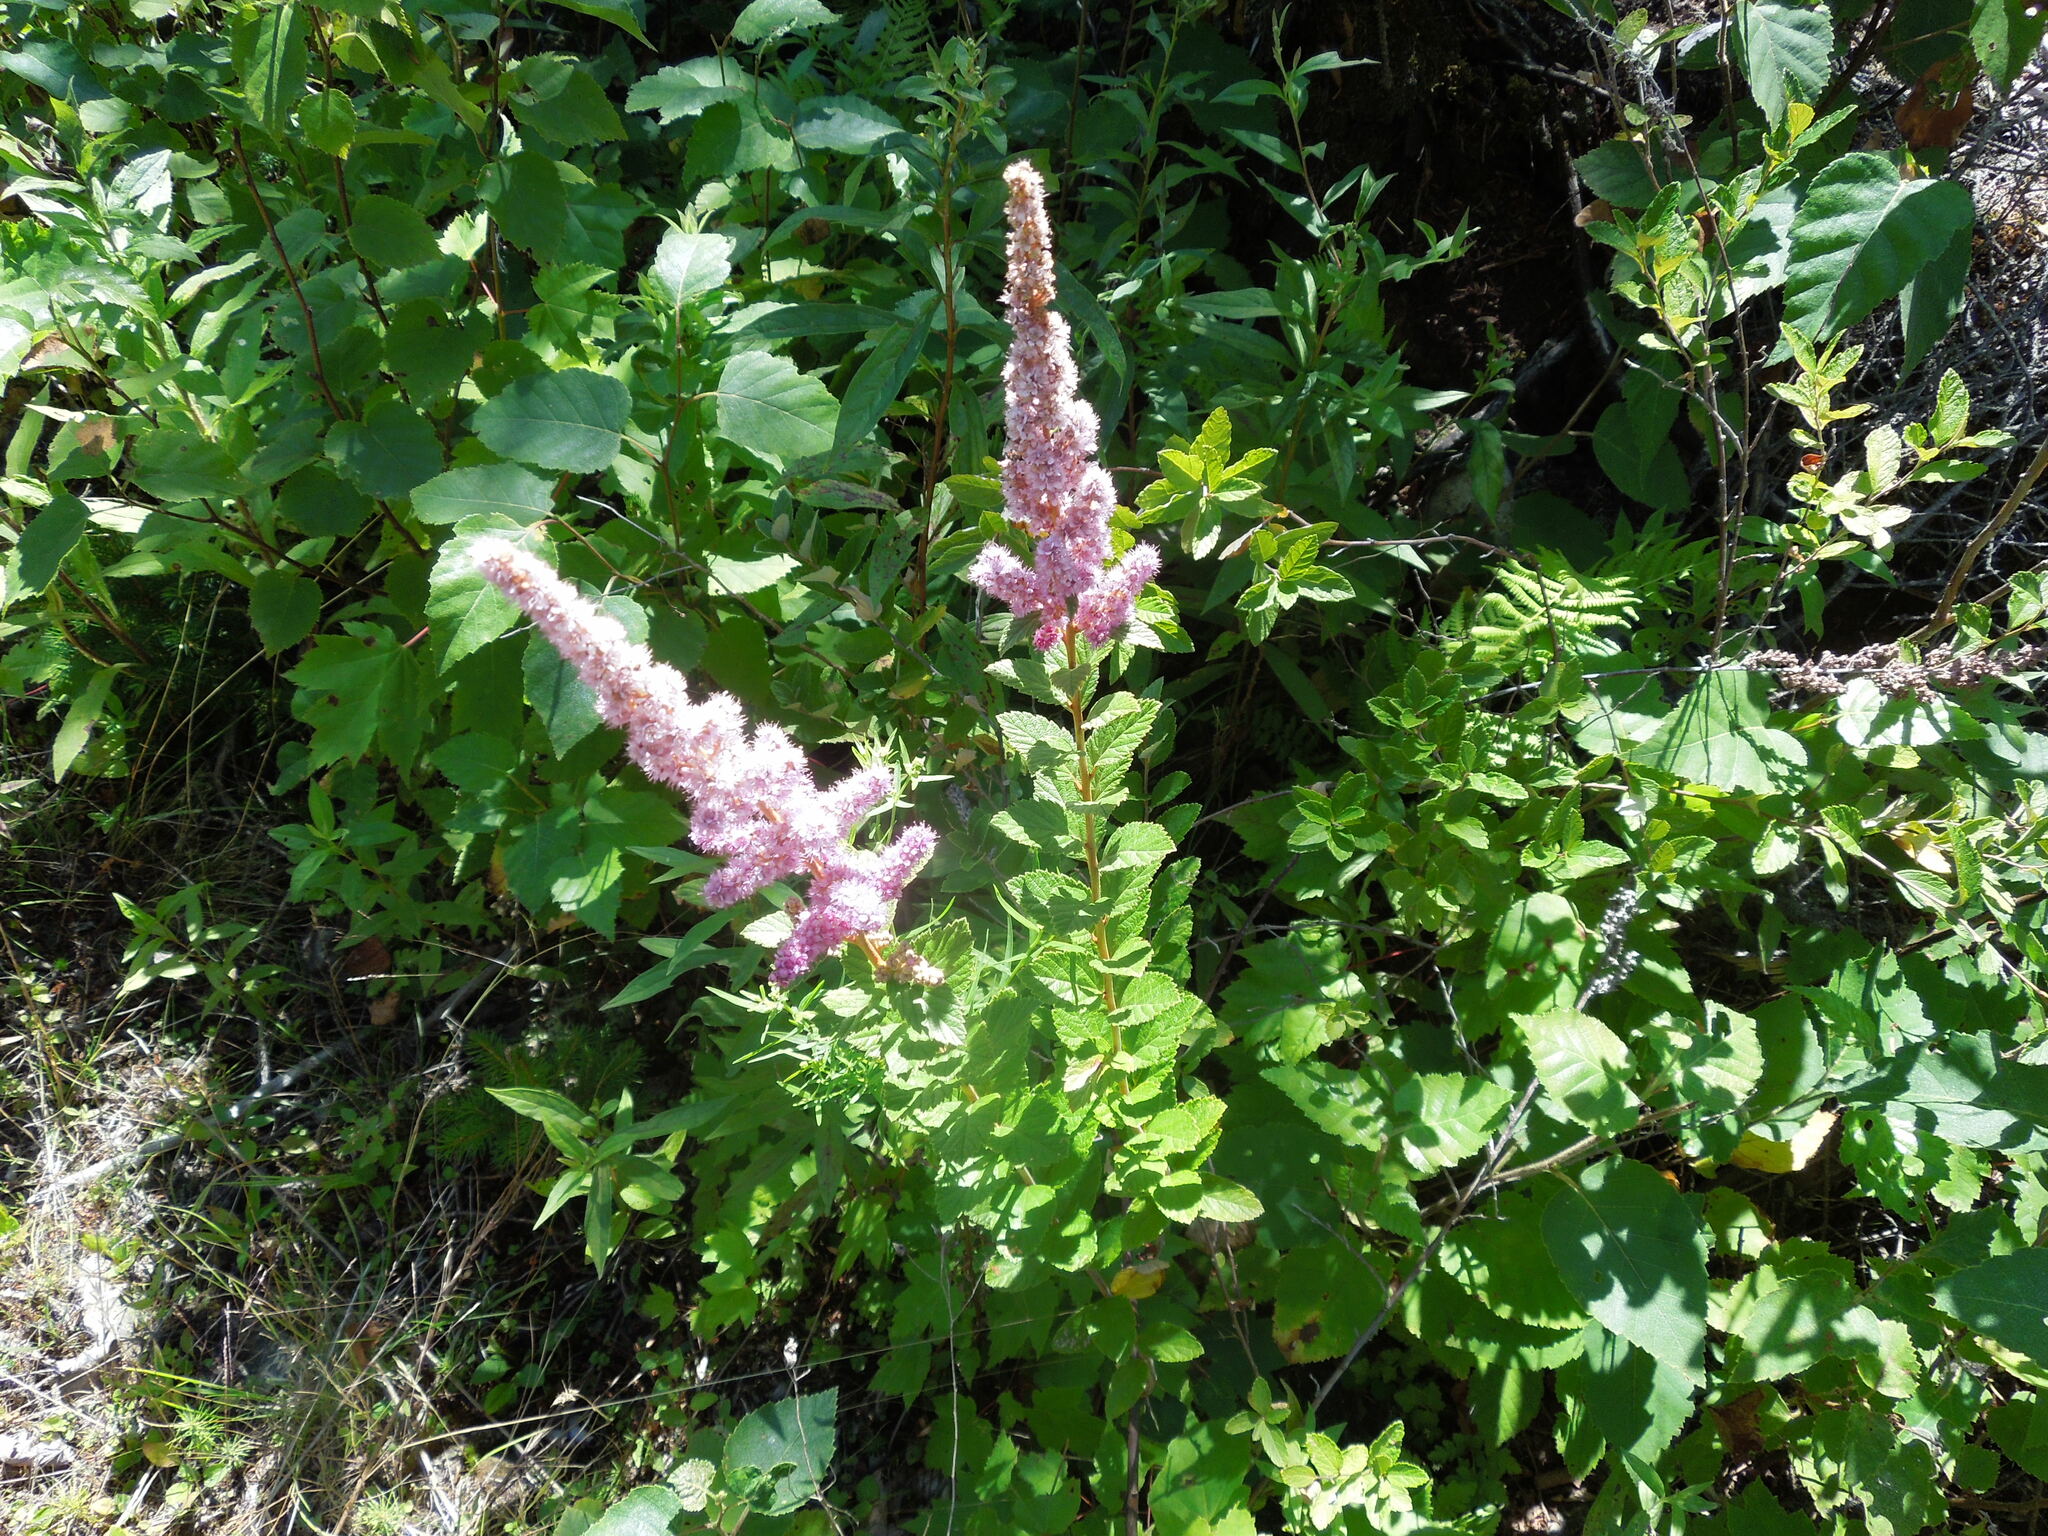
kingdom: Plantae
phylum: Tracheophyta
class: Magnoliopsida
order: Rosales
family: Rosaceae
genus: Spiraea
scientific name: Spiraea tomentosa
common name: Hardhack
